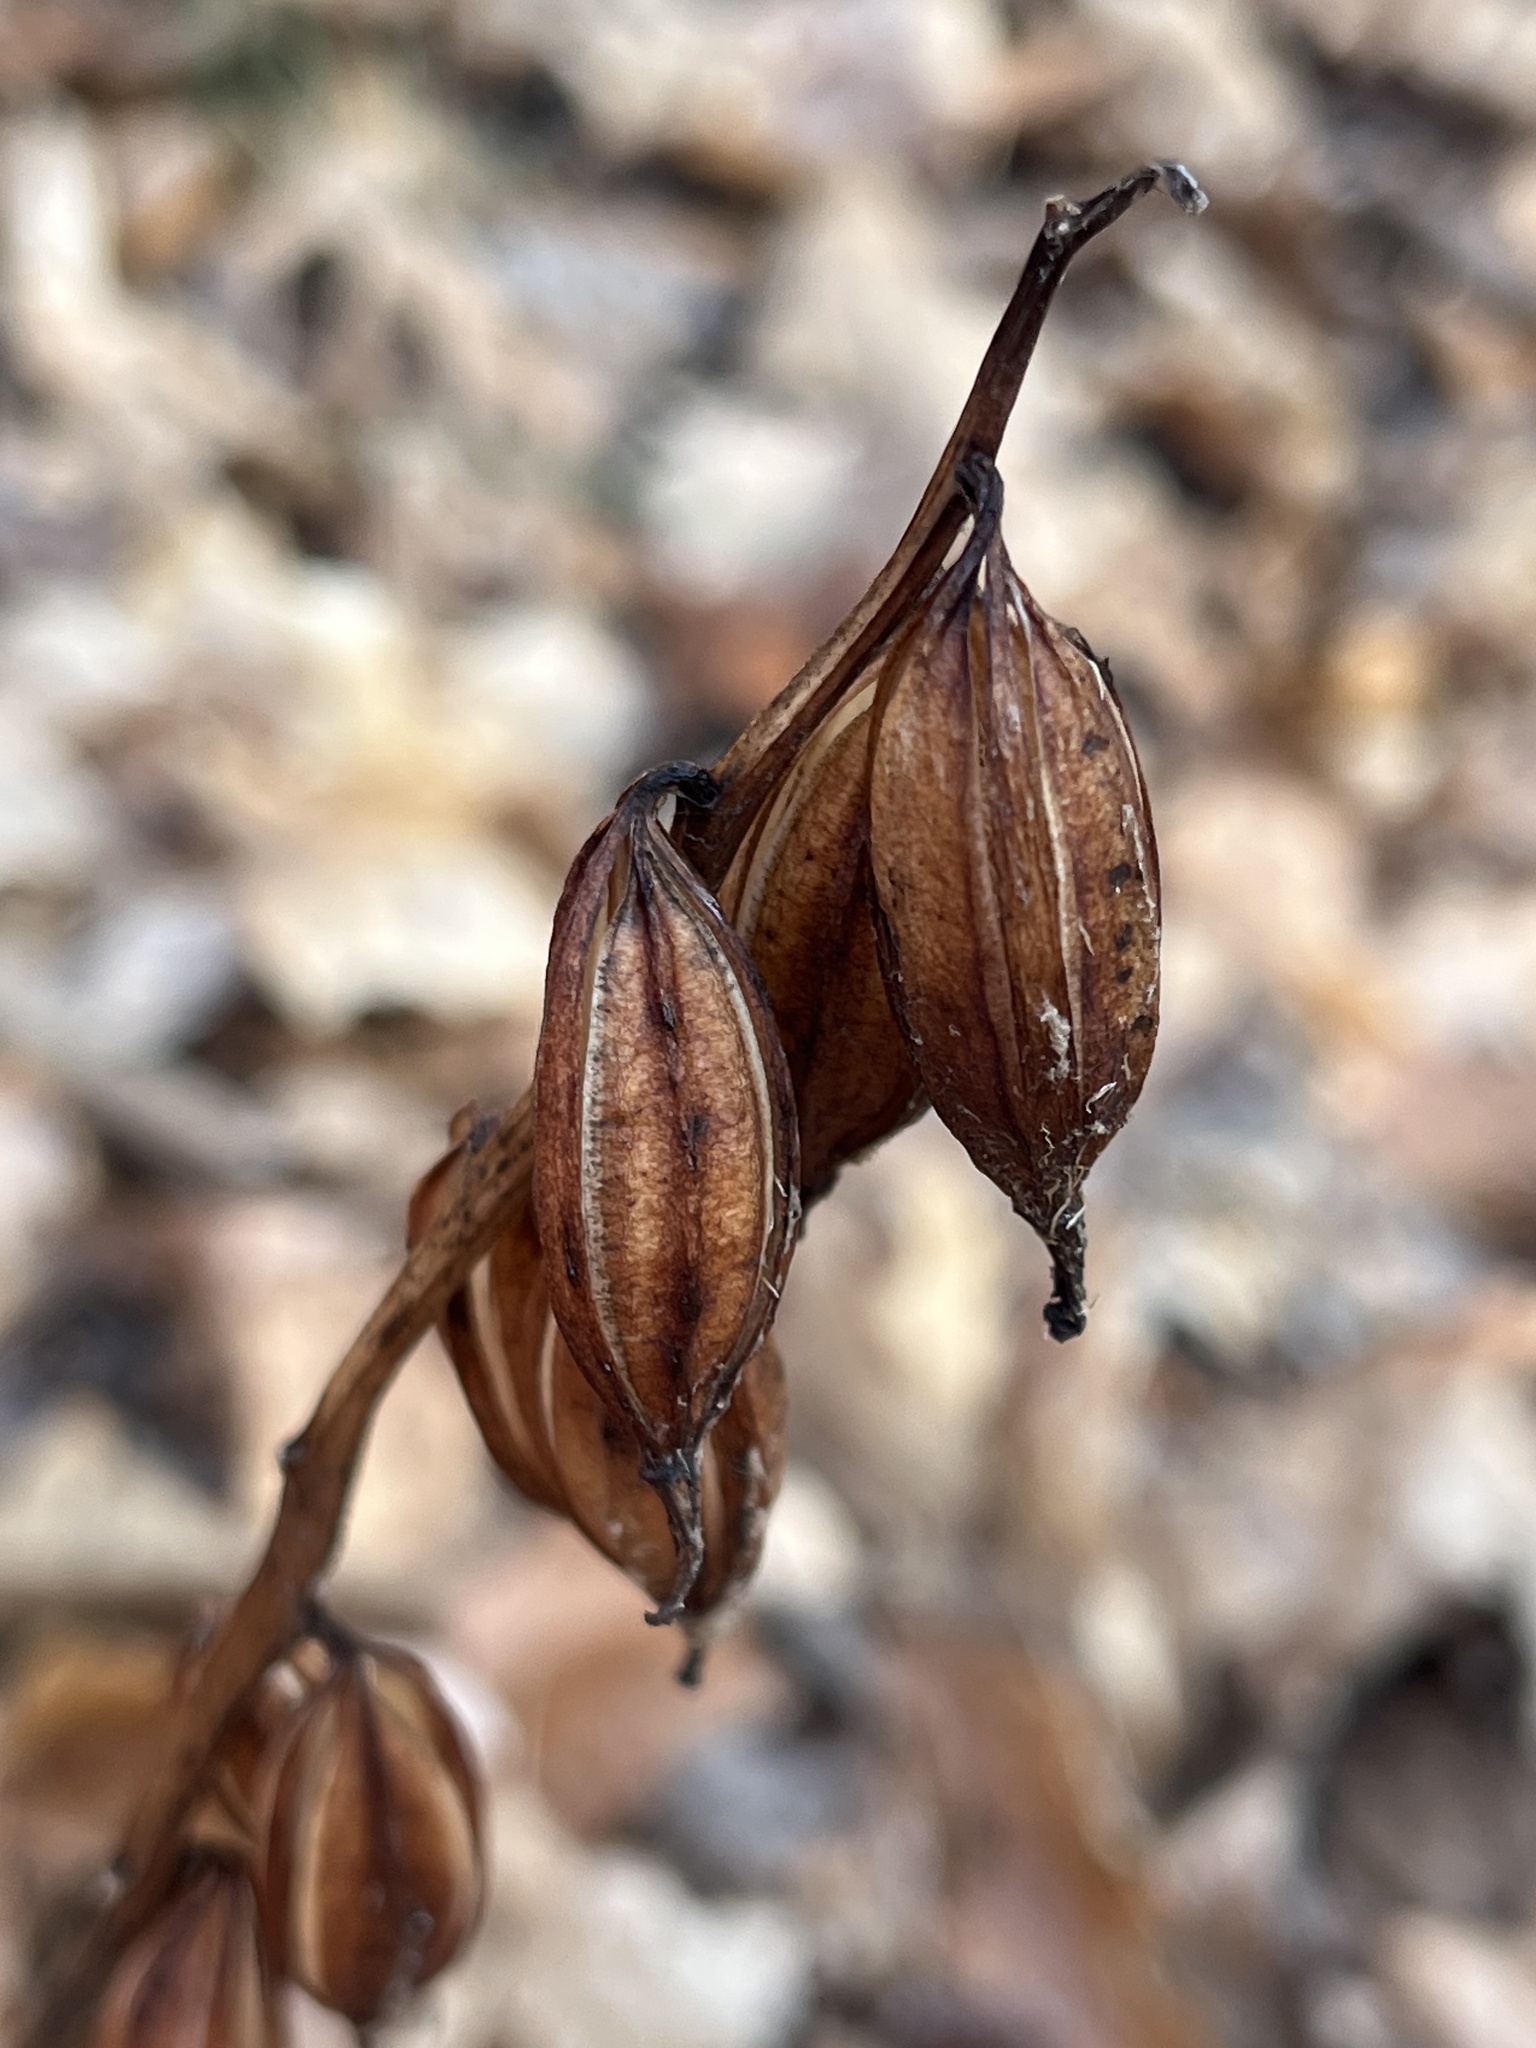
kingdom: Plantae
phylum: Tracheophyta
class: Liliopsida
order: Asparagales
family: Orchidaceae
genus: Aplectrum
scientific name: Aplectrum hyemale
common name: Adam-and-eve
